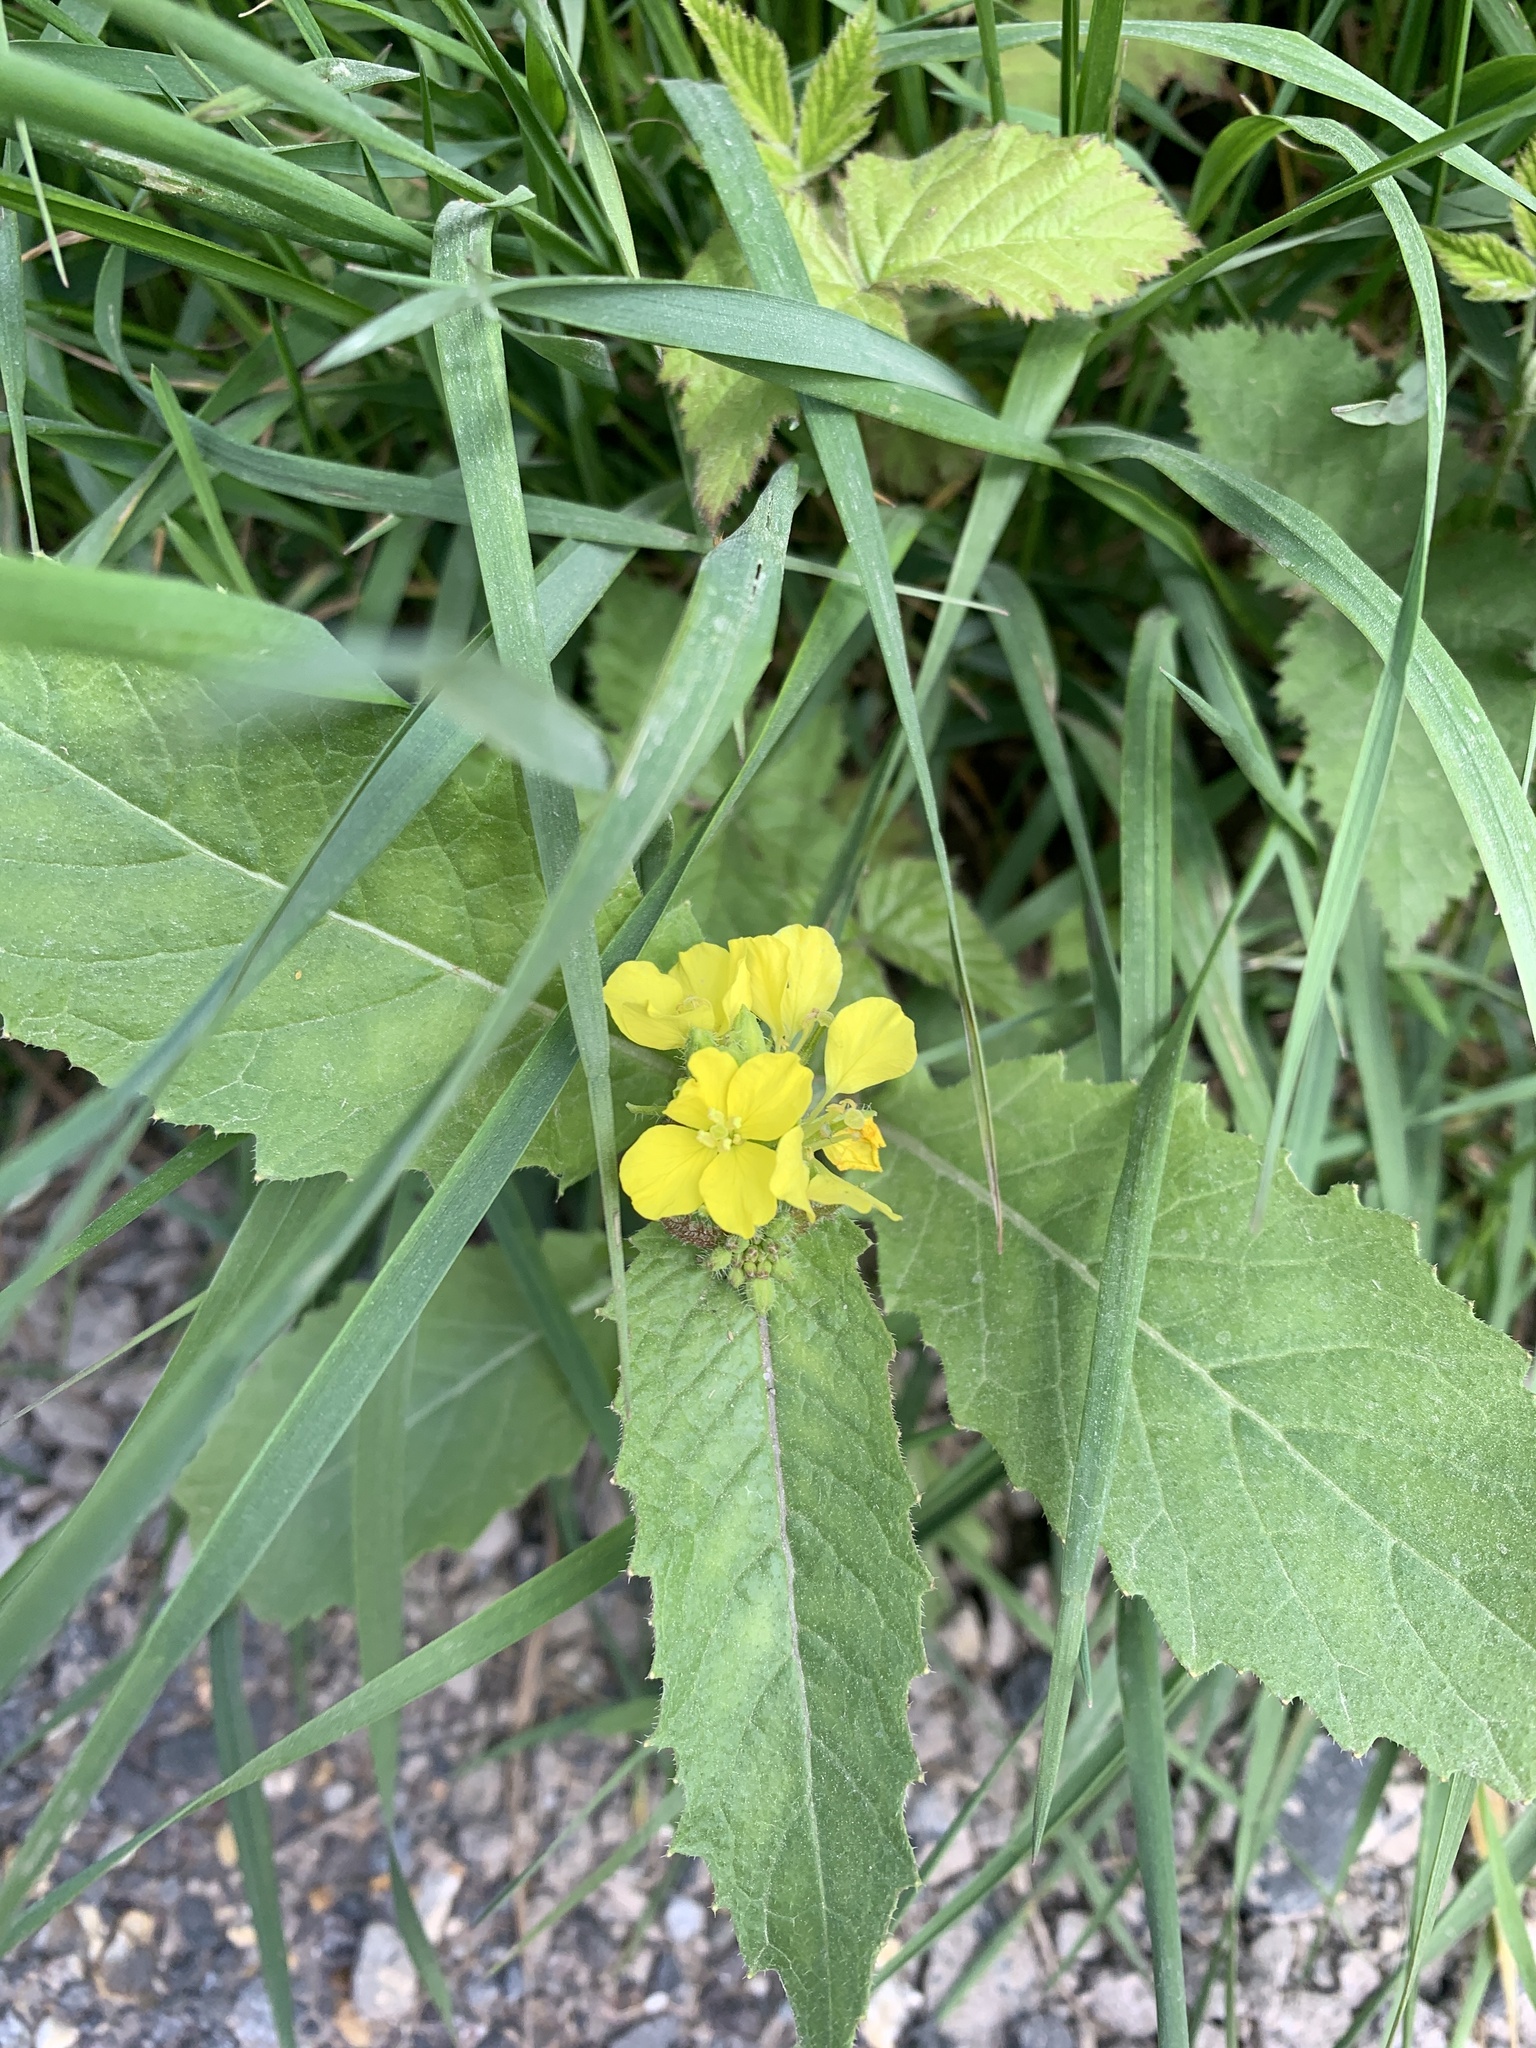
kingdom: Plantae
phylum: Tracheophyta
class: Magnoliopsida
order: Brassicales
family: Brassicaceae
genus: Sinapis
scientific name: Sinapis arvensis
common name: Charlock
